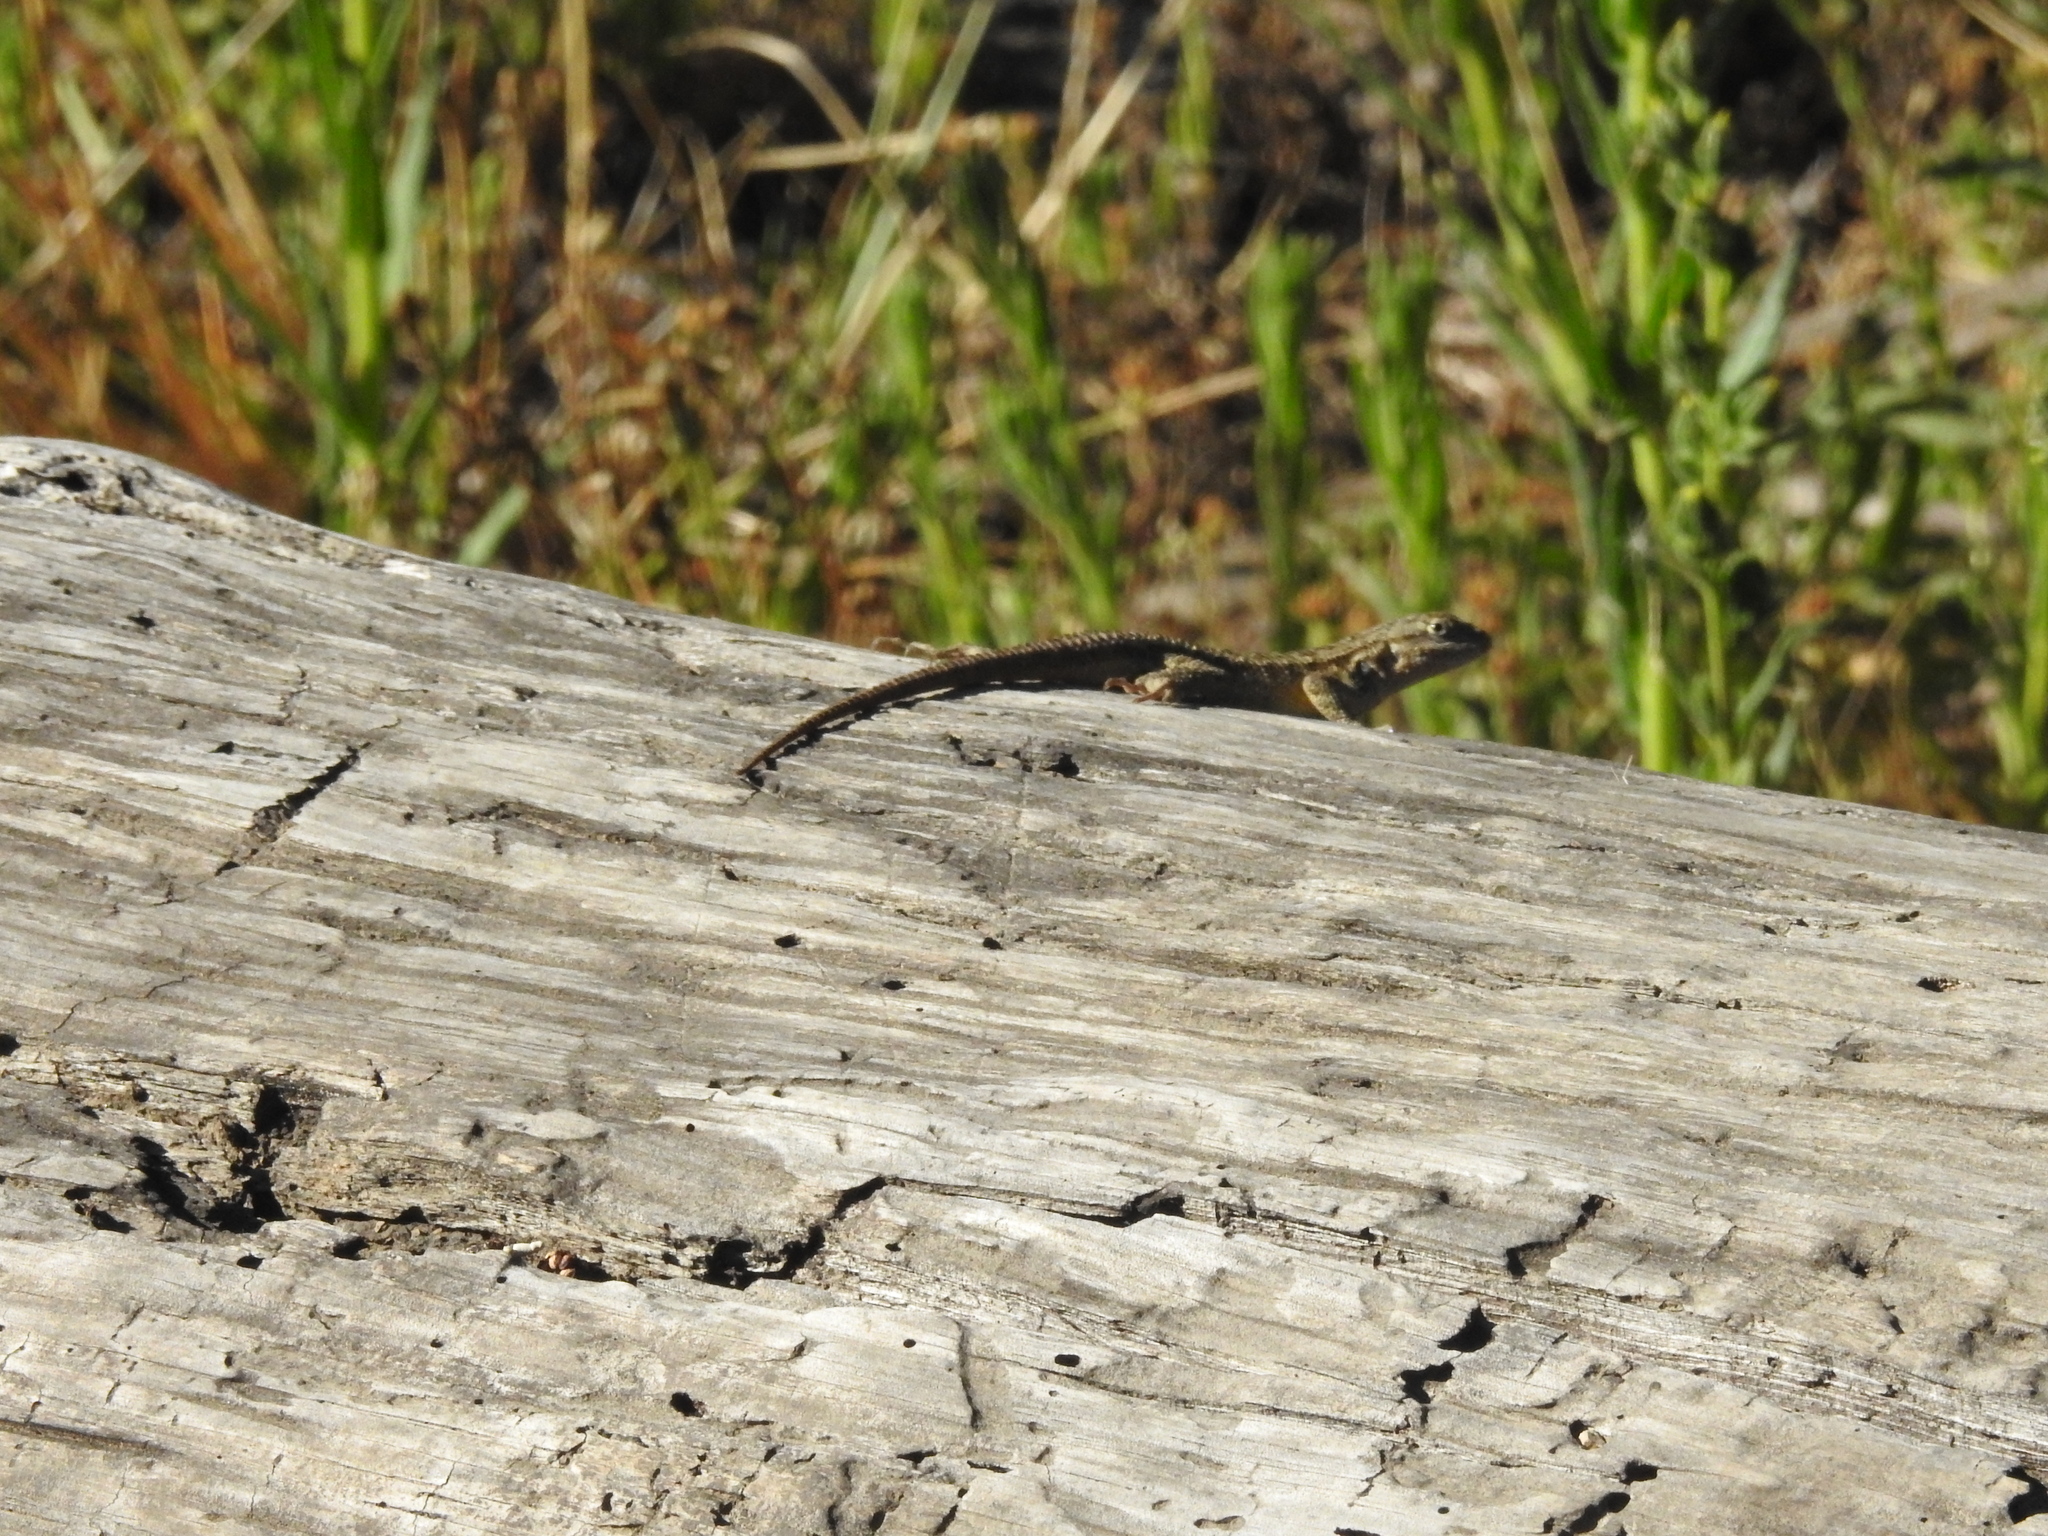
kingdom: Animalia
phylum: Chordata
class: Squamata
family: Phrynosomatidae
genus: Sceloporus
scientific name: Sceloporus occidentalis
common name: Western fence lizard
